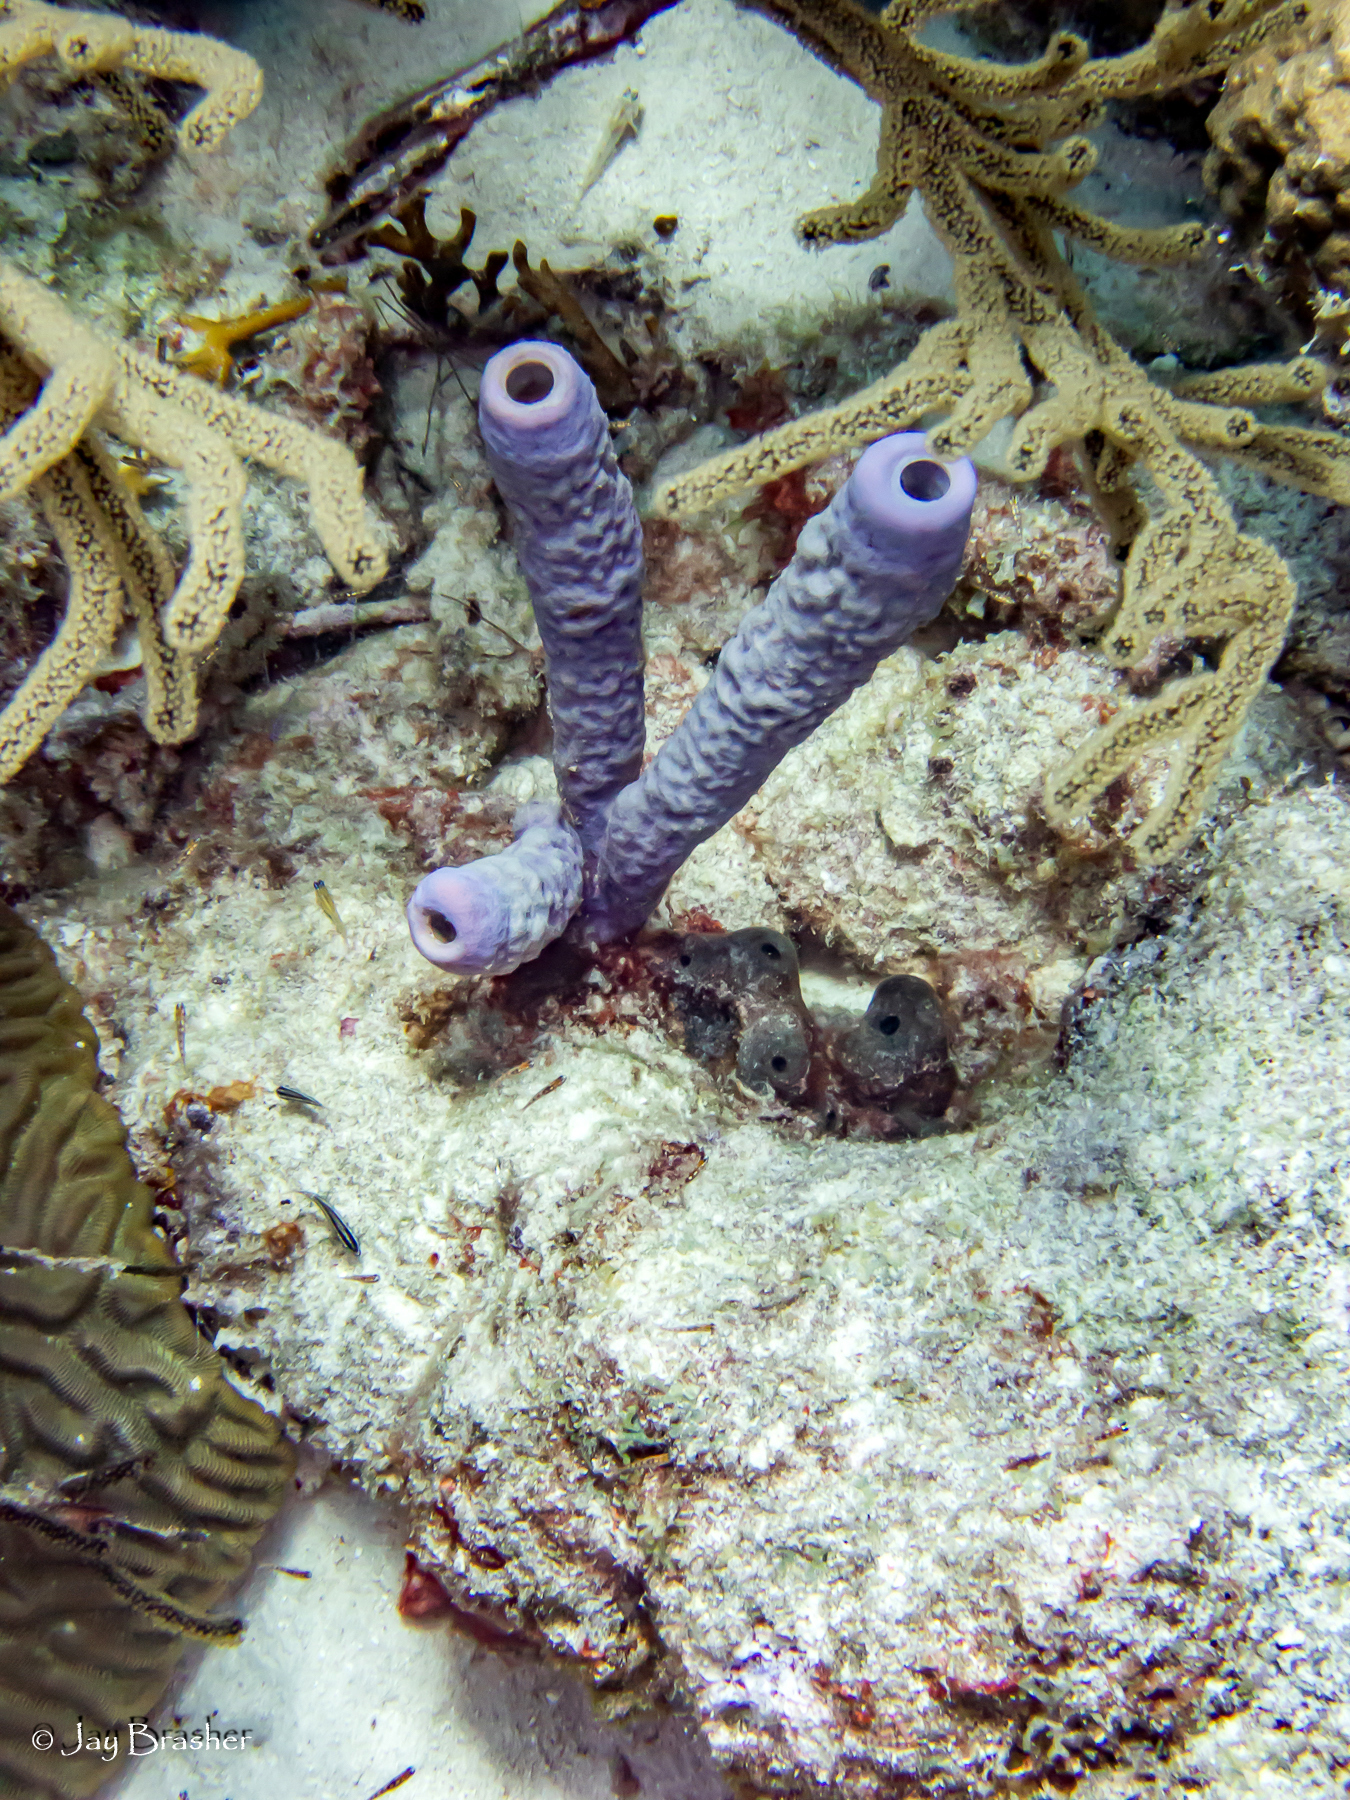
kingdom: Animalia
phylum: Porifera
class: Demospongiae
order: Verongiida
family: Aplysinidae
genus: Aplysina
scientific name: Aplysina archeri
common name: Stove-pipe sponge
